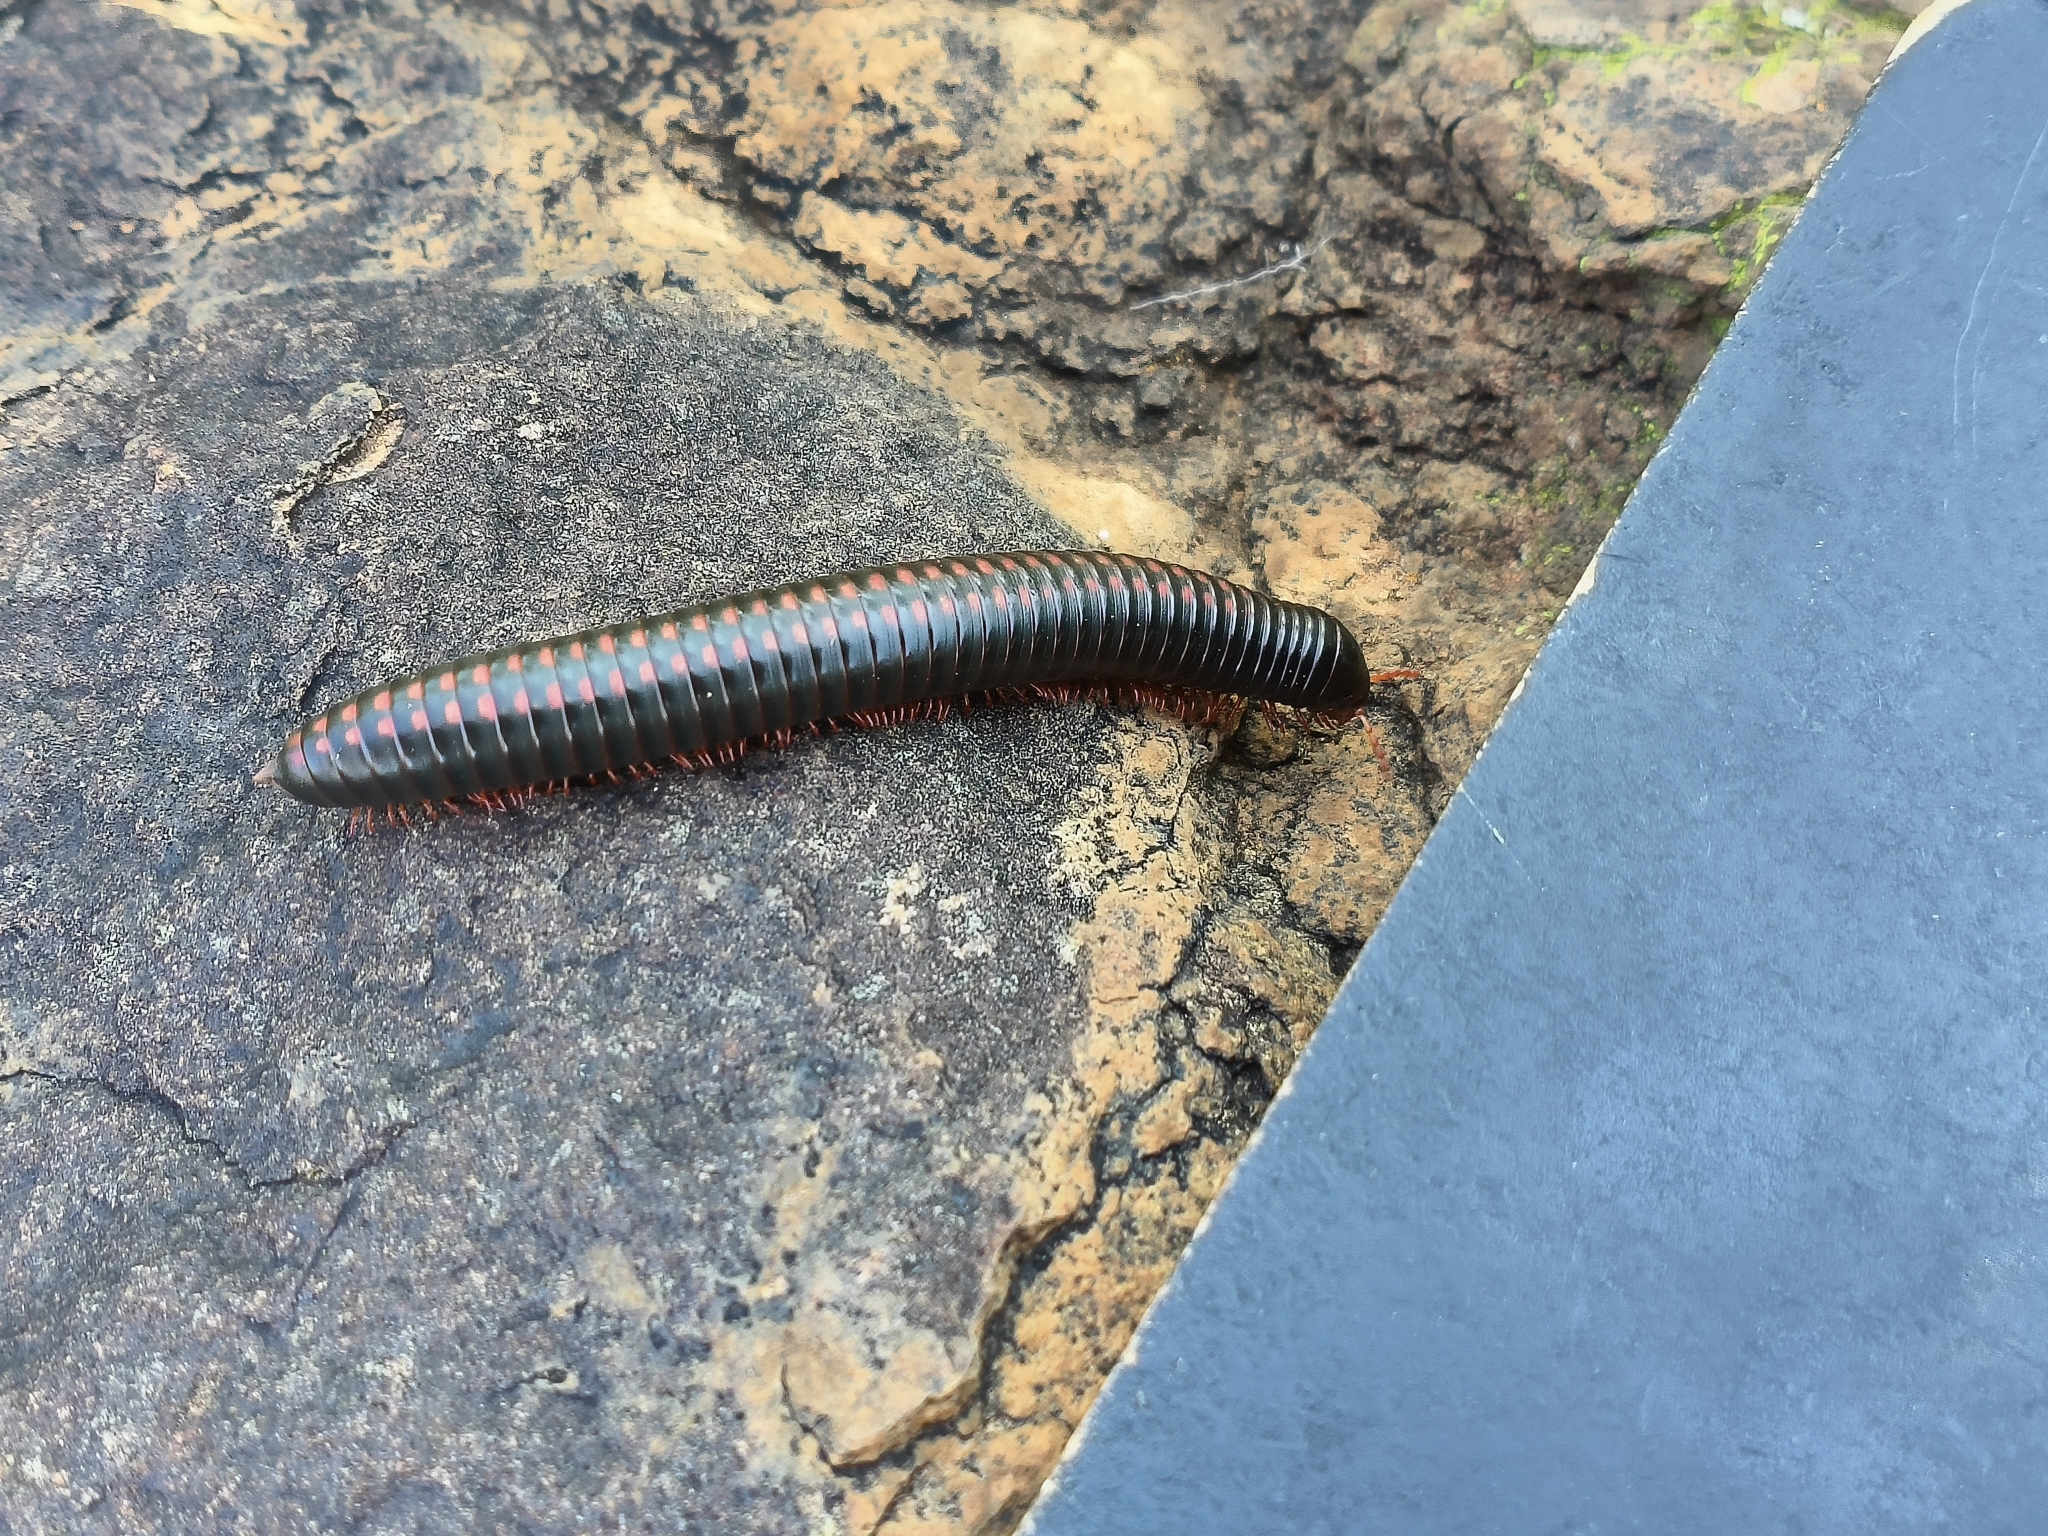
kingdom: Animalia
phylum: Arthropoda
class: Diplopoda
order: Spirostreptida
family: Harpagophoridae
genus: Zinophora
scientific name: Zinophora brevispina
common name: Short-spined large spined millipede
